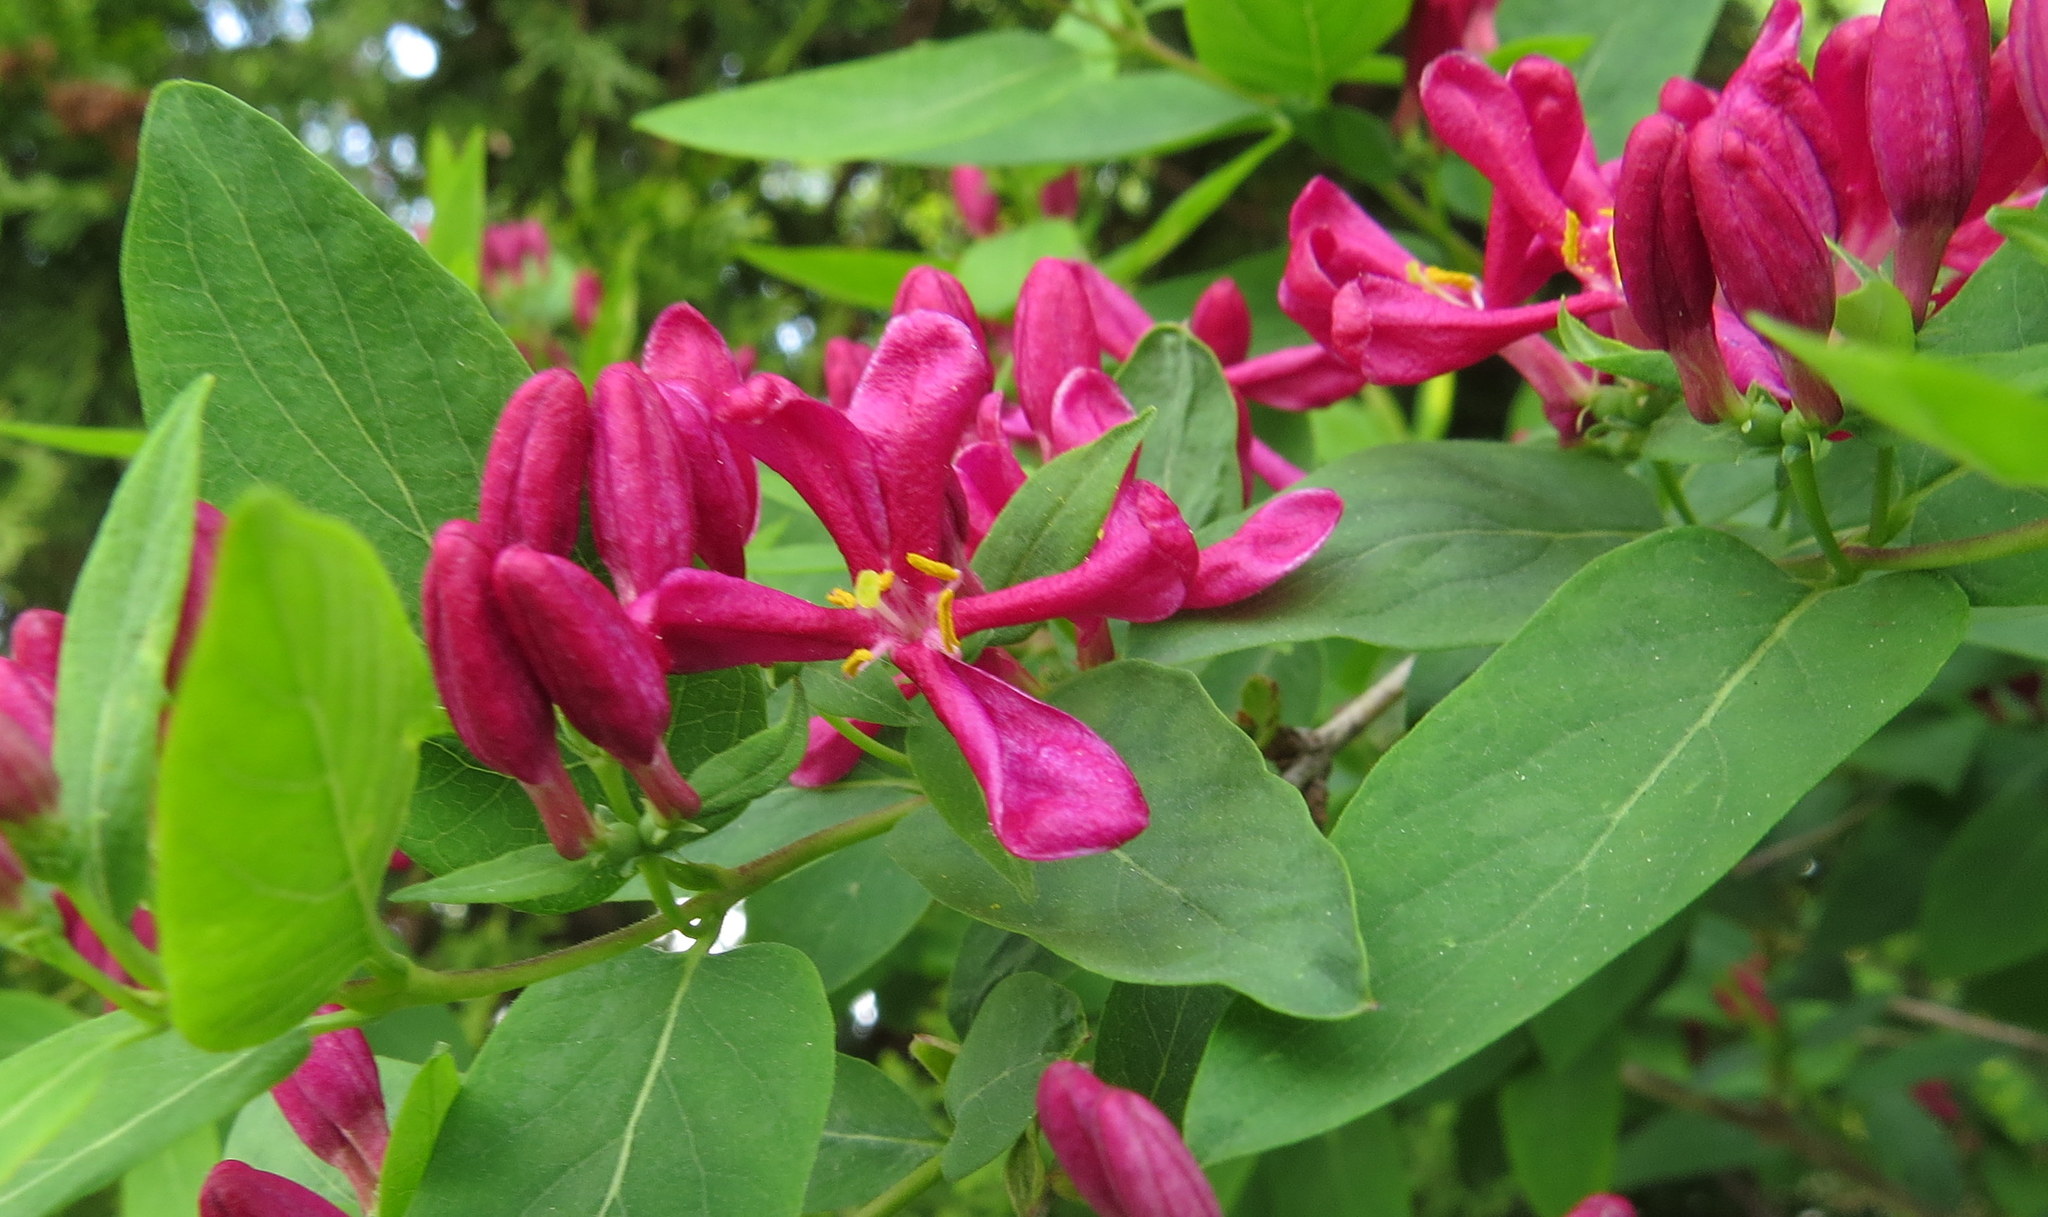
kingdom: Plantae
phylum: Tracheophyta
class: Magnoliopsida
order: Dipsacales
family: Caprifoliaceae
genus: Lonicera
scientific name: Lonicera tatarica
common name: Tatarian honeysuckle
